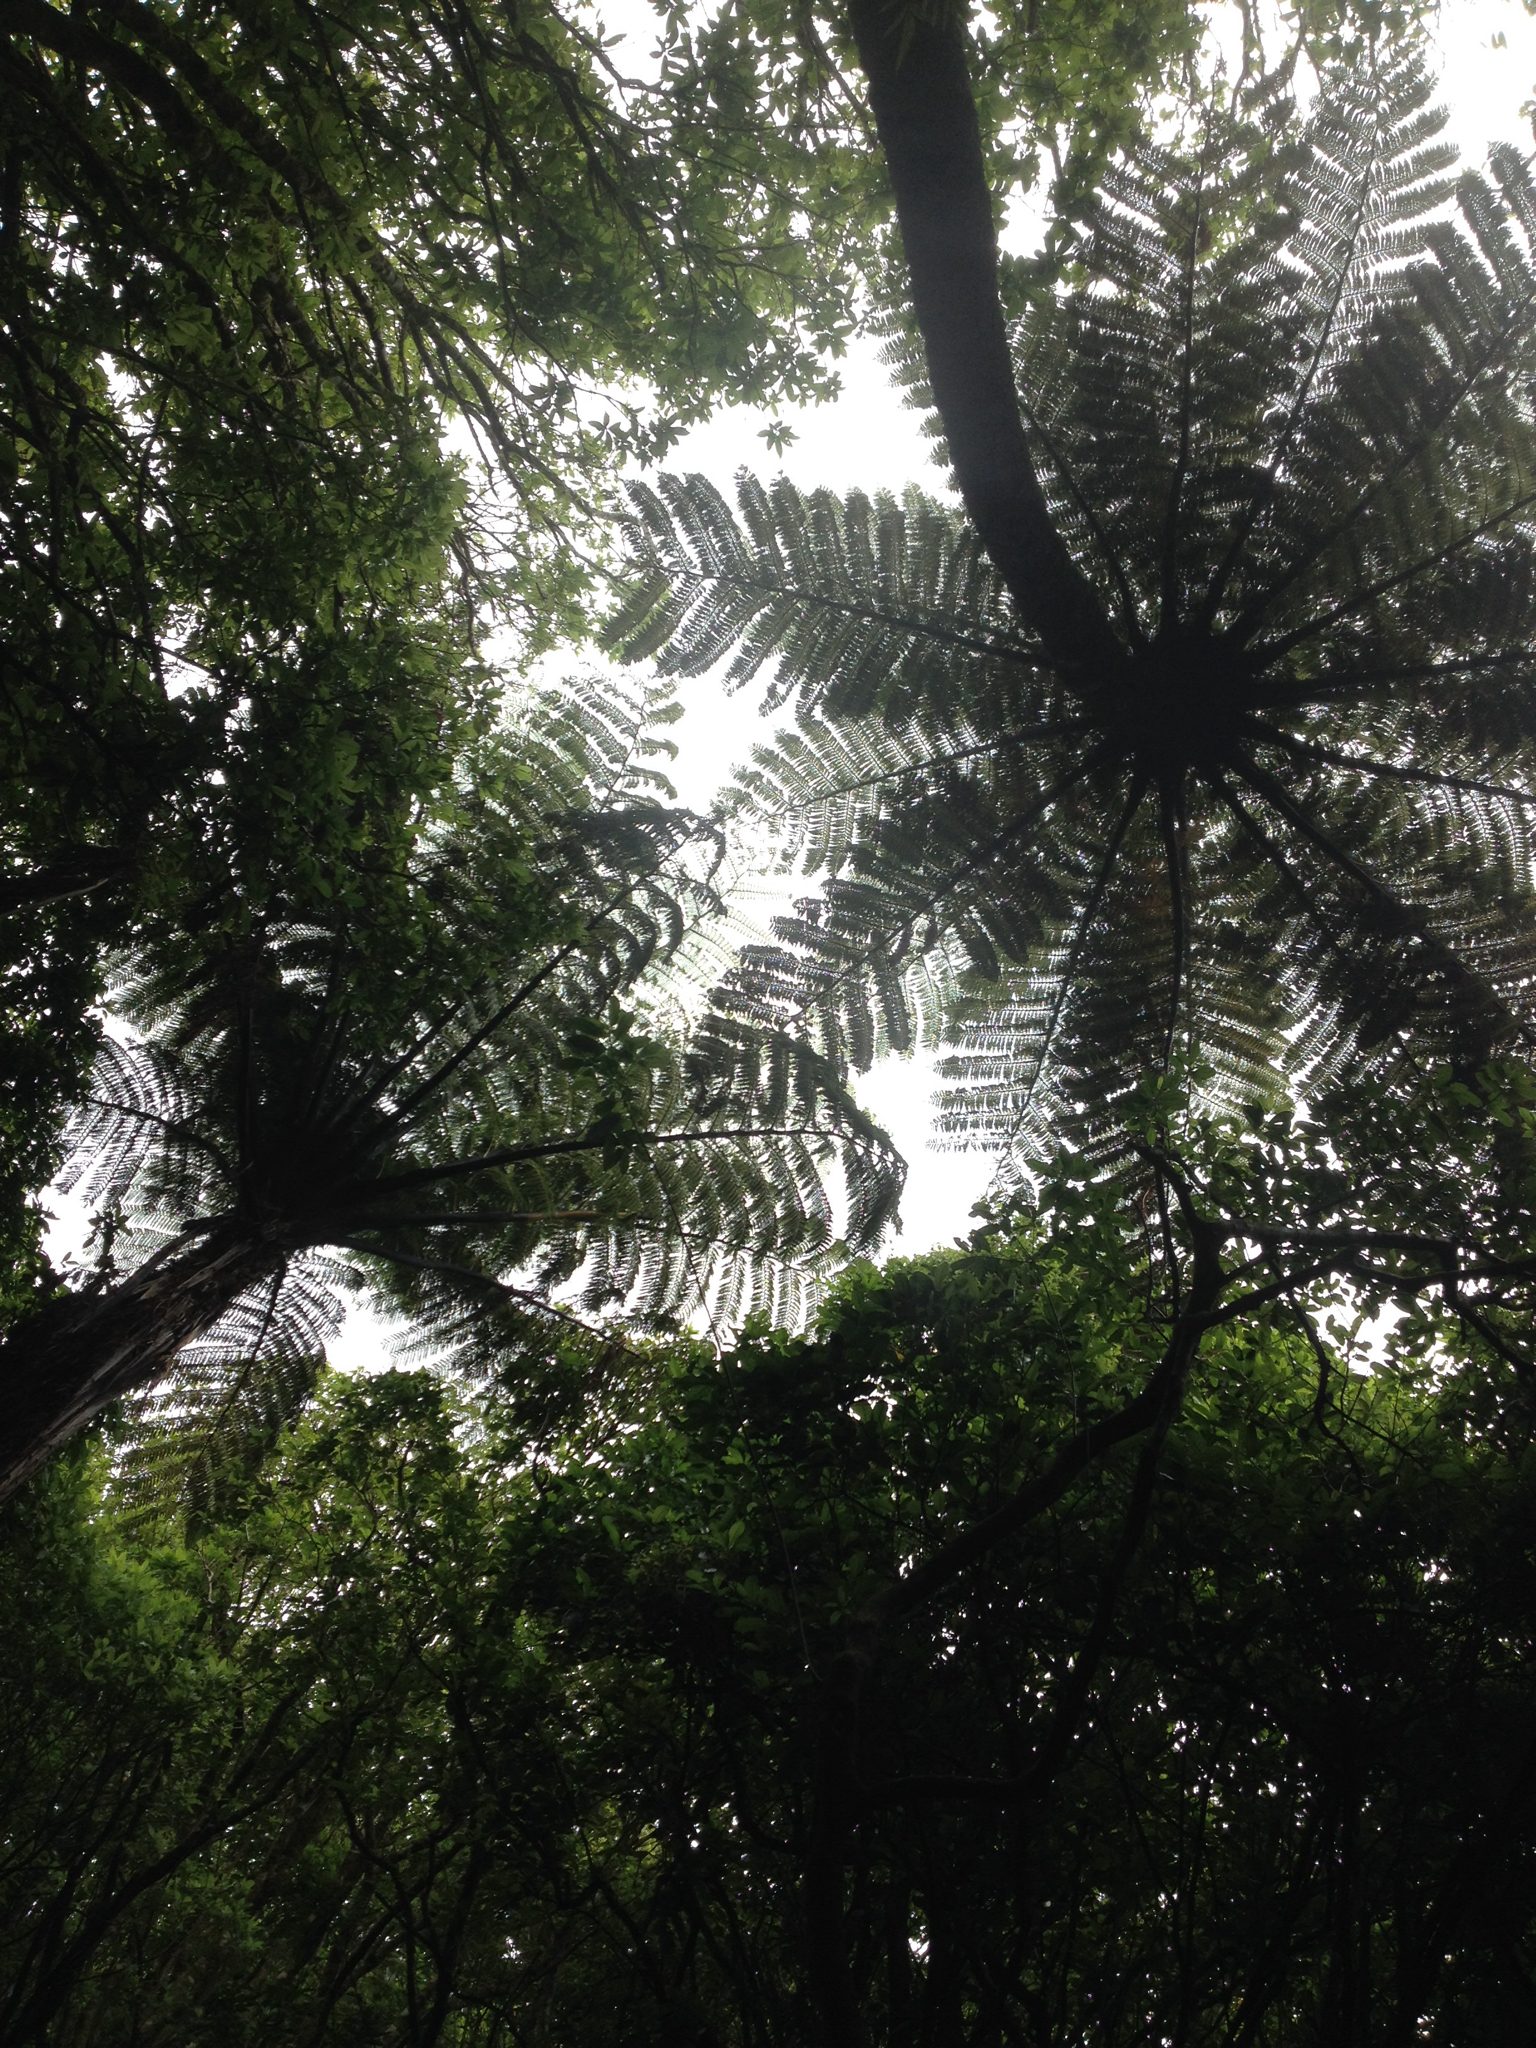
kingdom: Plantae
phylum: Tracheophyta
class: Polypodiopsida
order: Cyatheales
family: Cyatheaceae
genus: Sphaeropteris
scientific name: Sphaeropteris medullaris
